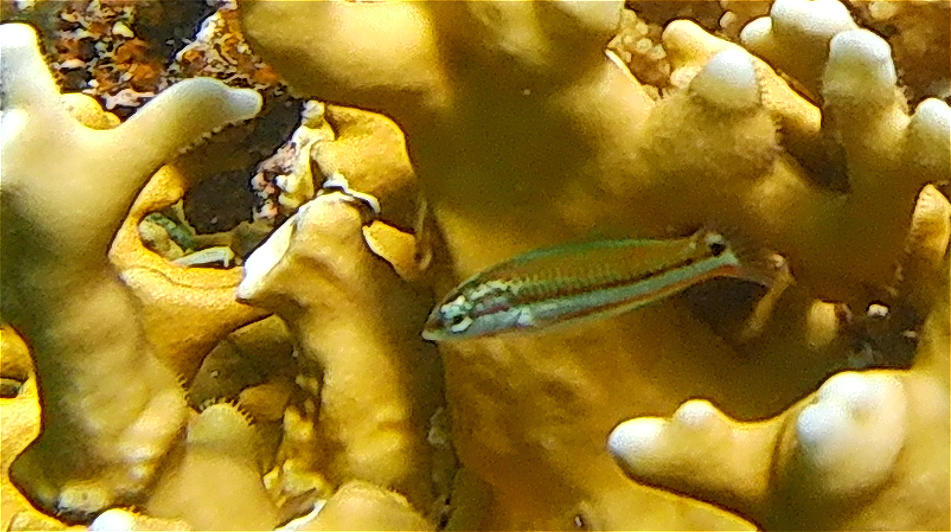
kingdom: Animalia
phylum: Chordata
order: Perciformes
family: Labridae
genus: Thalassoma
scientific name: Thalassoma rueppellii
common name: Klunzinger's wrasse
